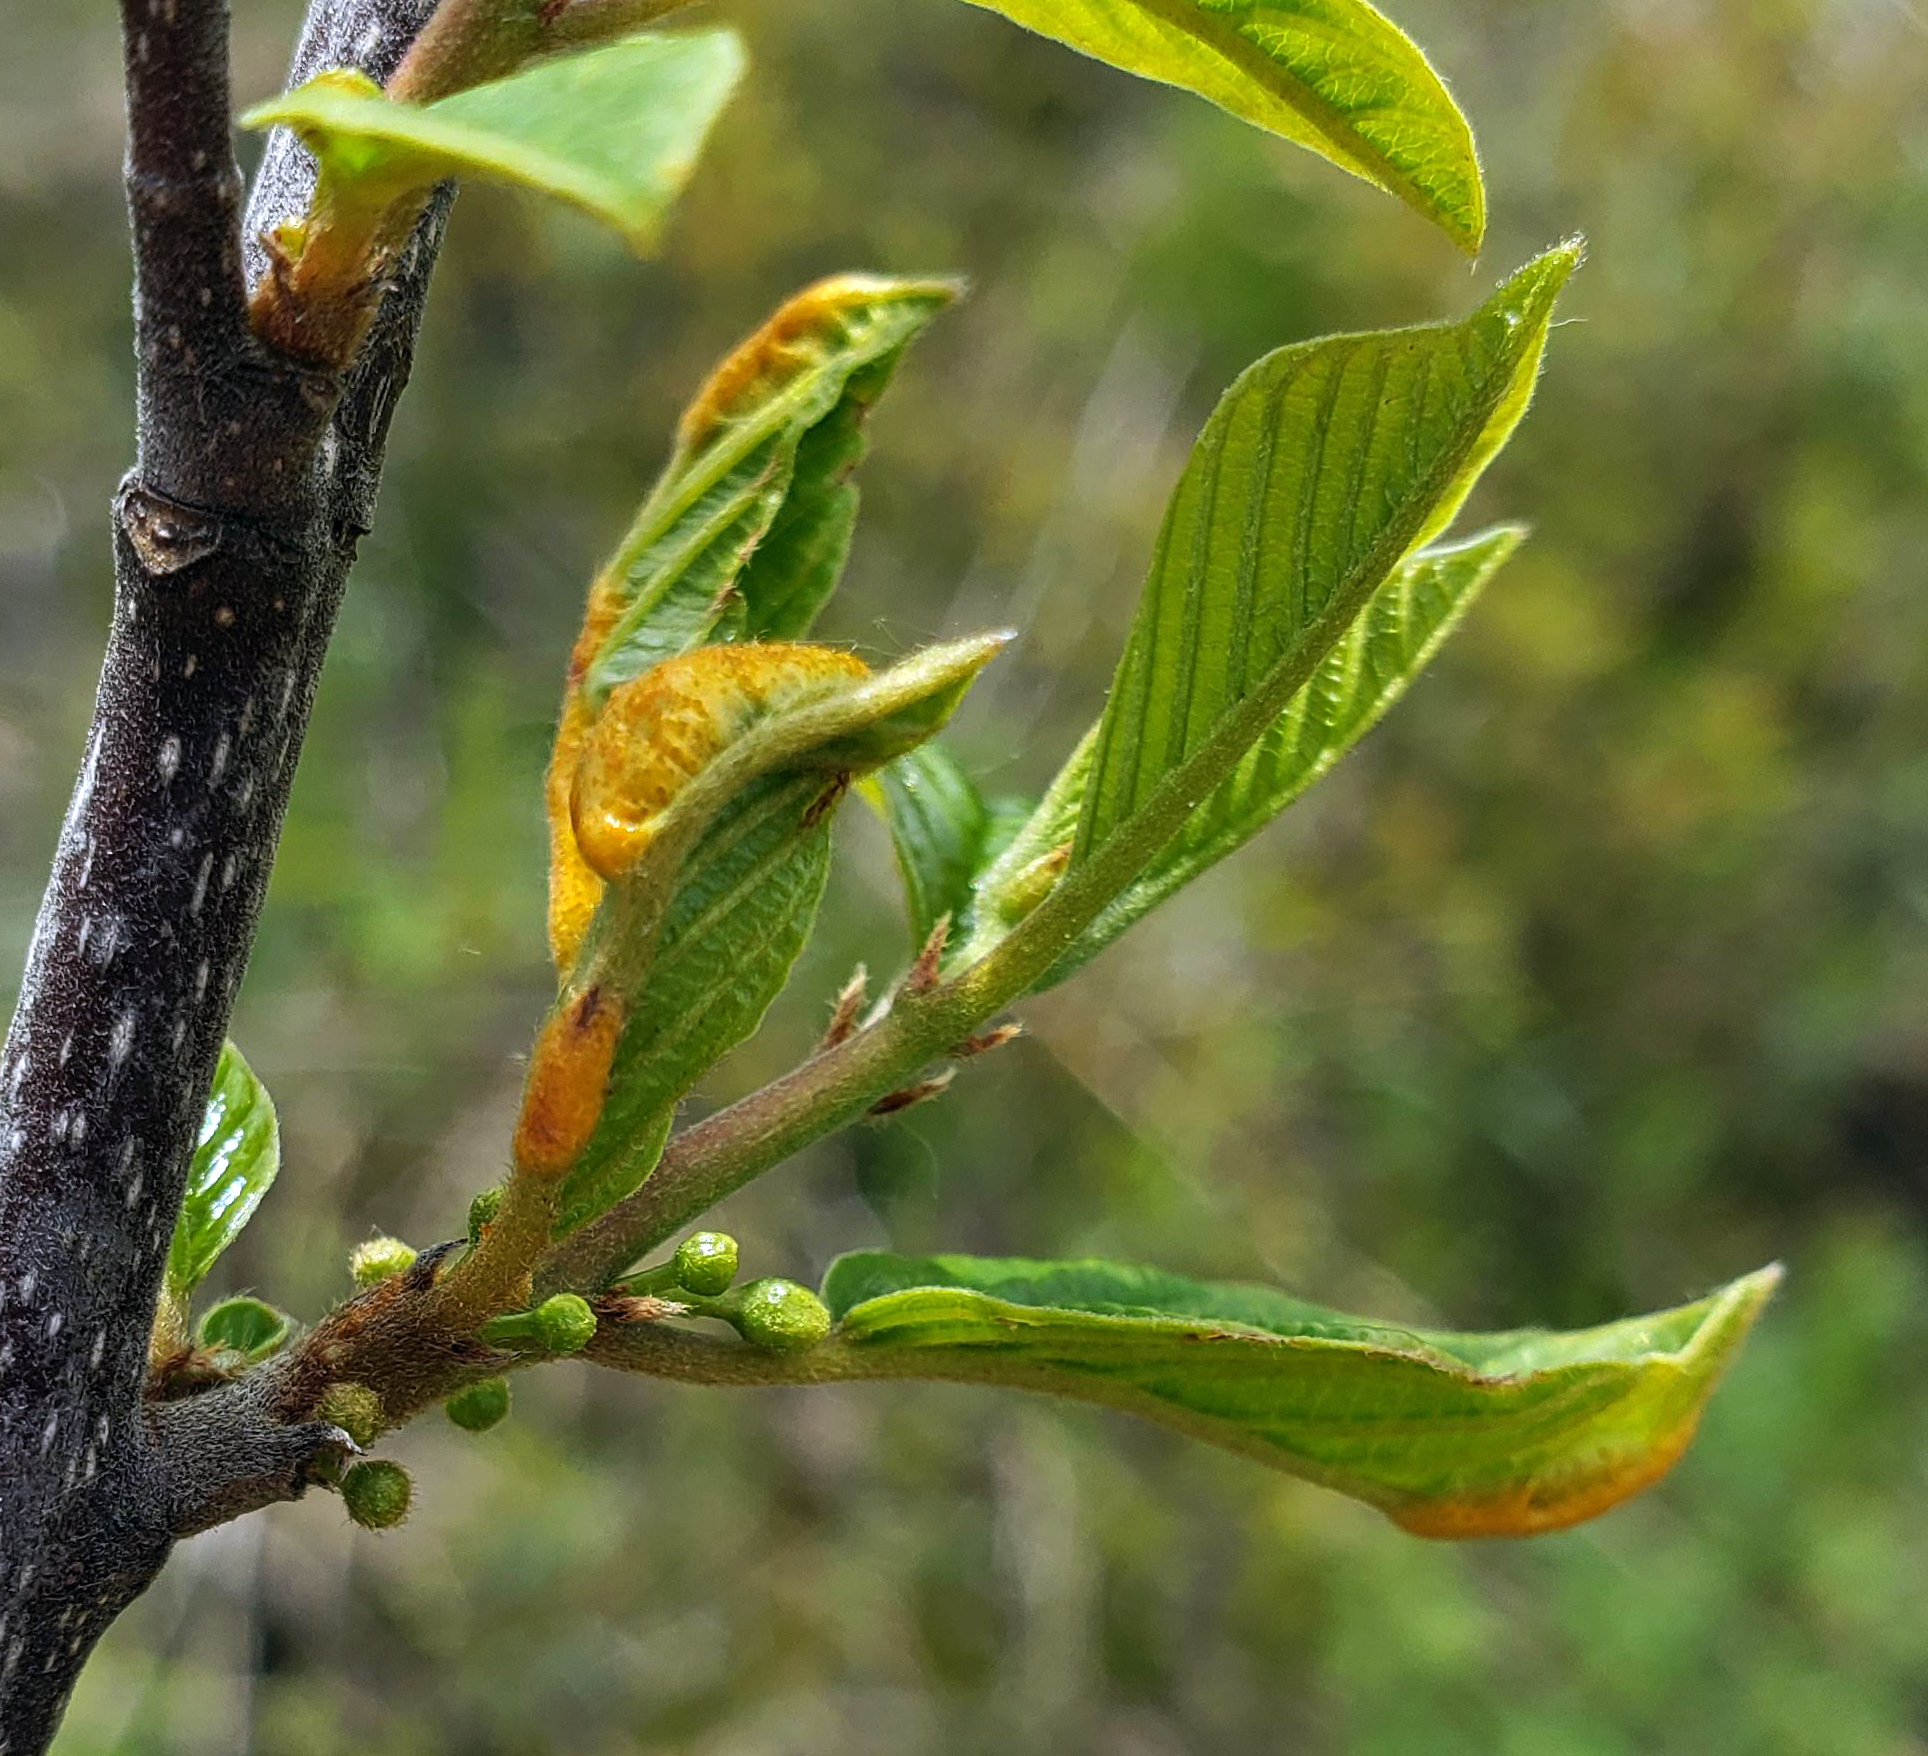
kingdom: Fungi
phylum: Basidiomycota
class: Pucciniomycetes
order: Pucciniales
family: Pucciniaceae
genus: Puccinia
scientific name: Puccinia coronata
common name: Crown rust
